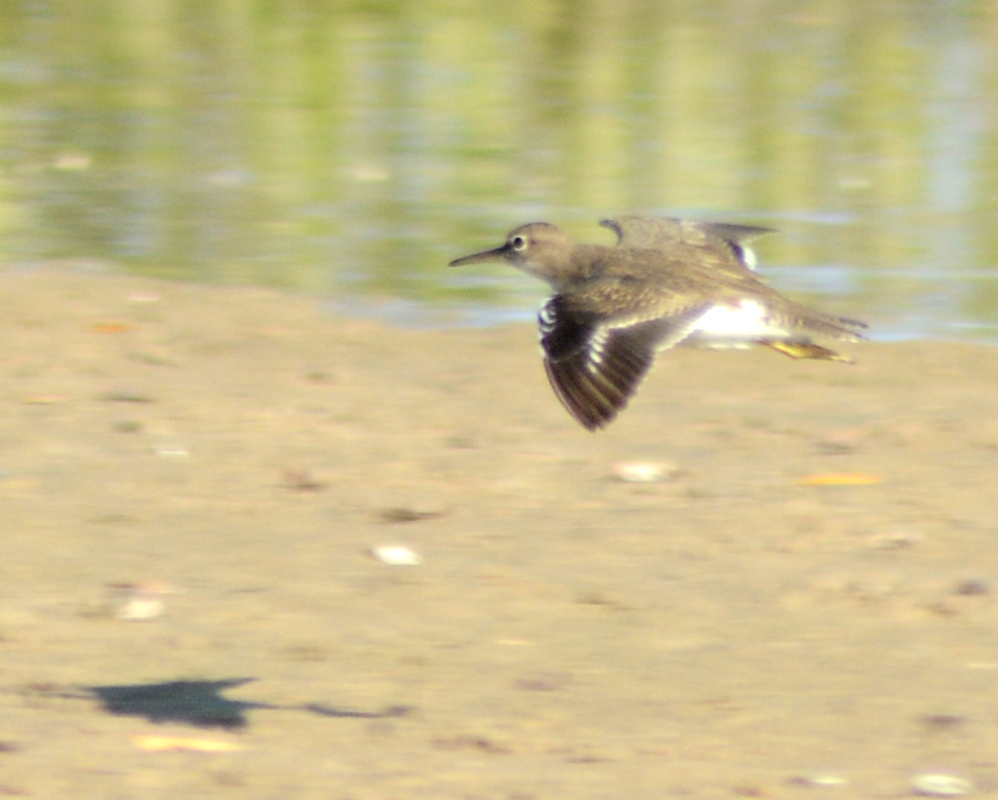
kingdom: Animalia
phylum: Chordata
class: Aves
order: Charadriiformes
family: Scolopacidae
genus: Actitis
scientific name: Actitis macularius
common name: Spotted sandpiper
